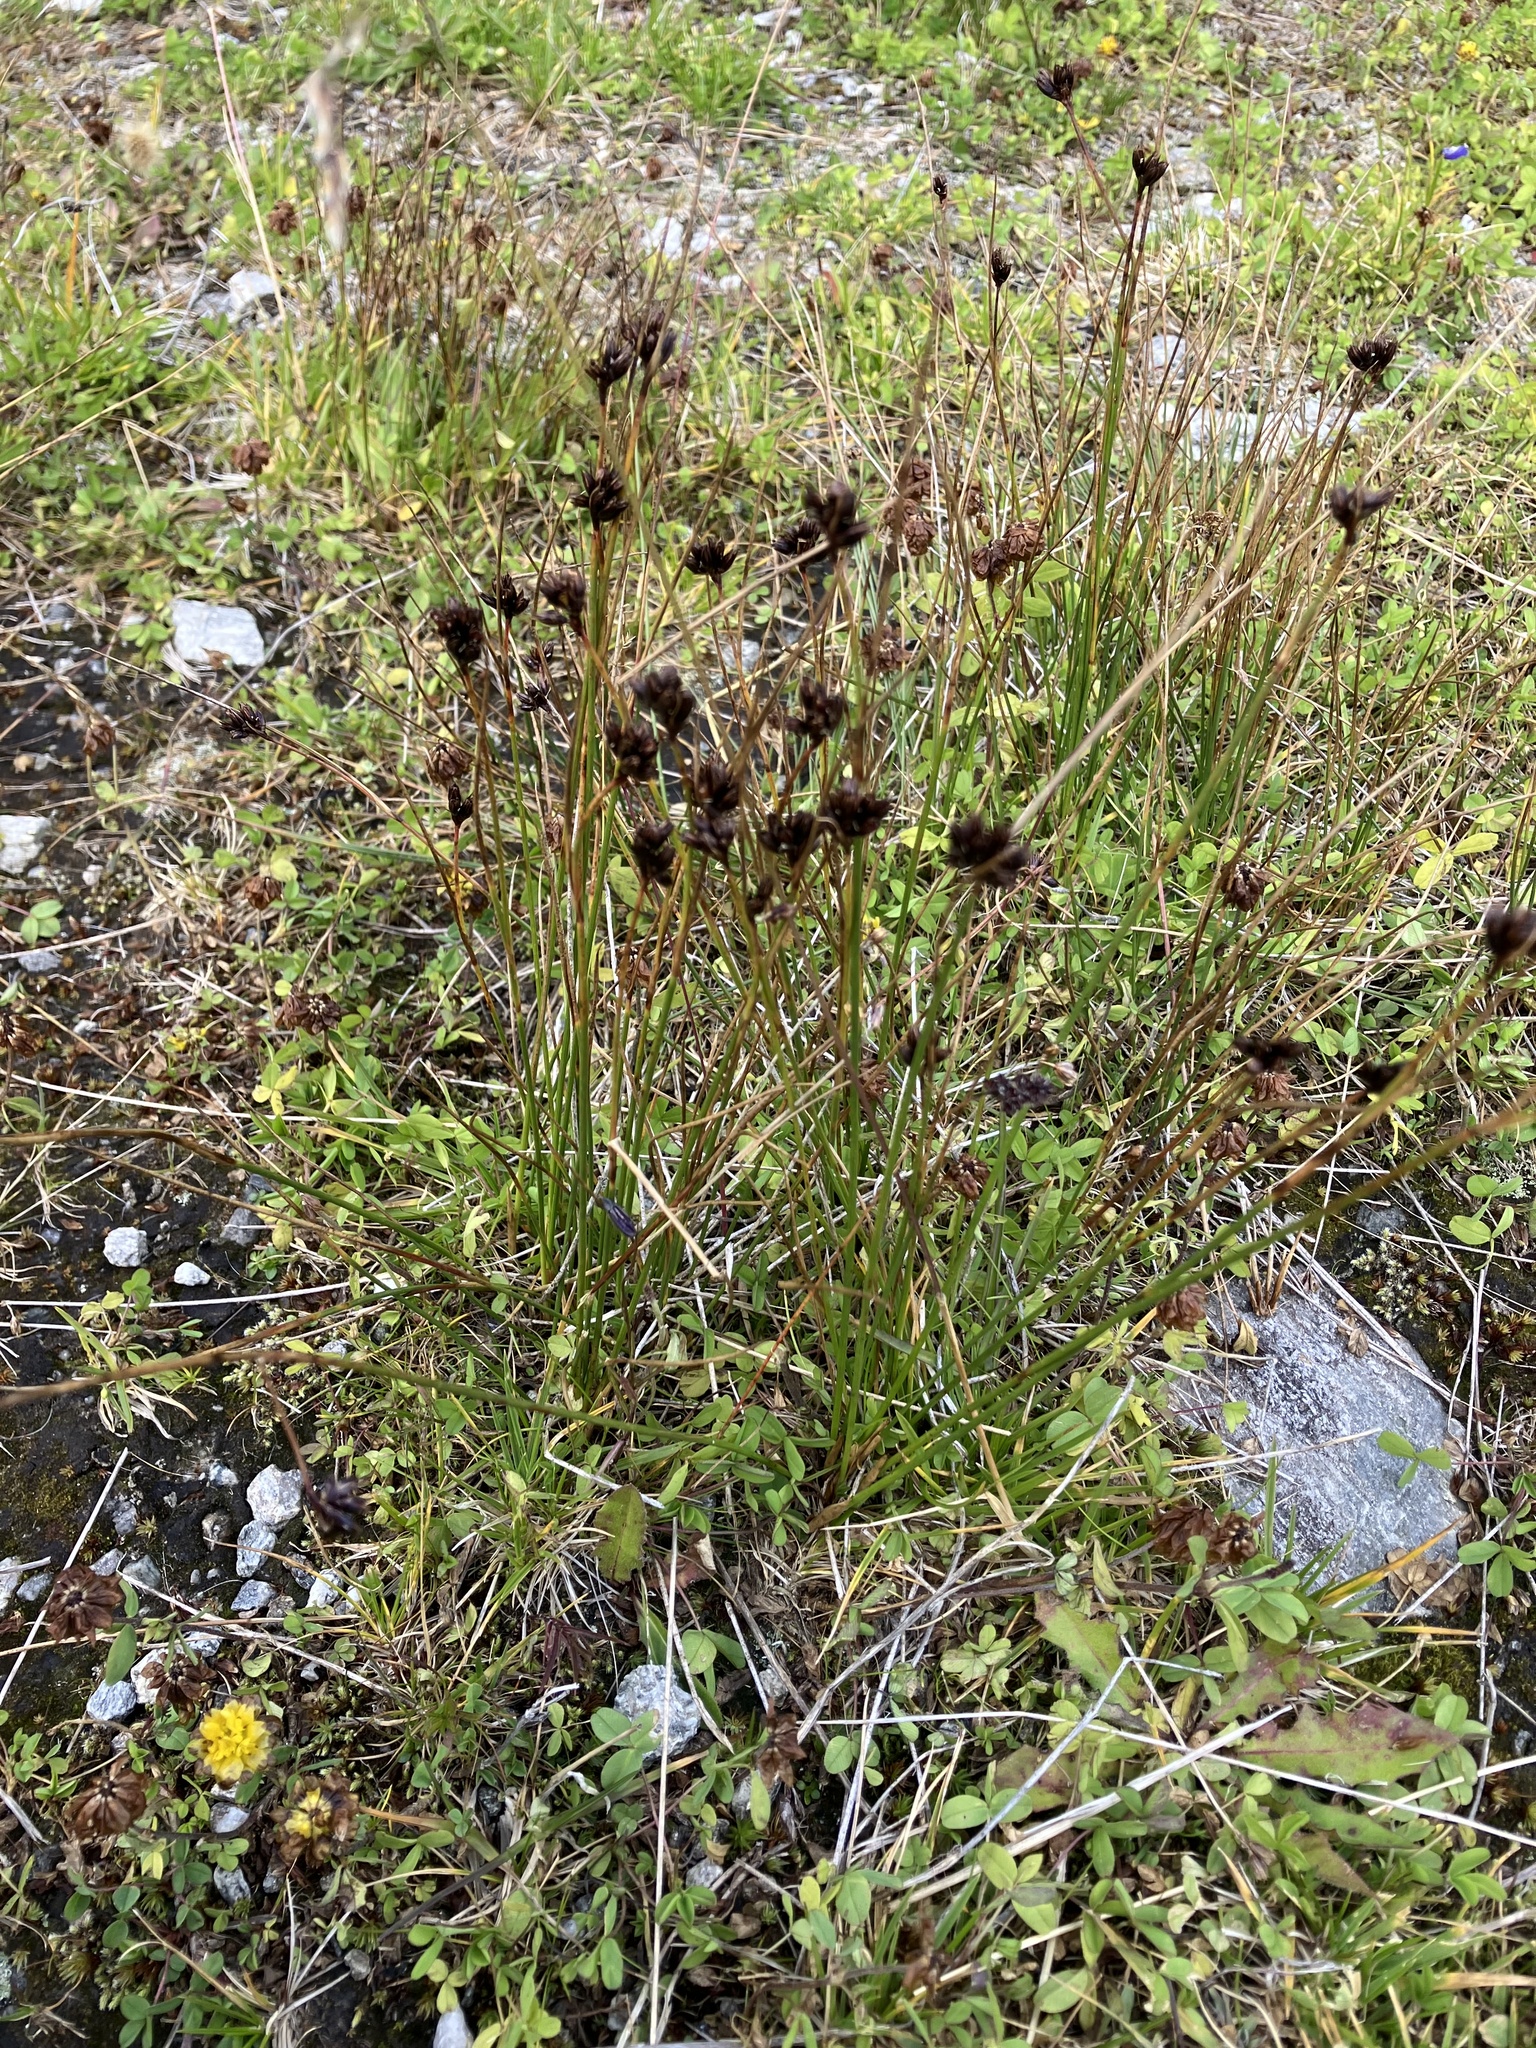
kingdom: Plantae
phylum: Tracheophyta
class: Liliopsida
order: Poales
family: Juncaceae
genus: Juncus
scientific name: Juncus jacquinii
